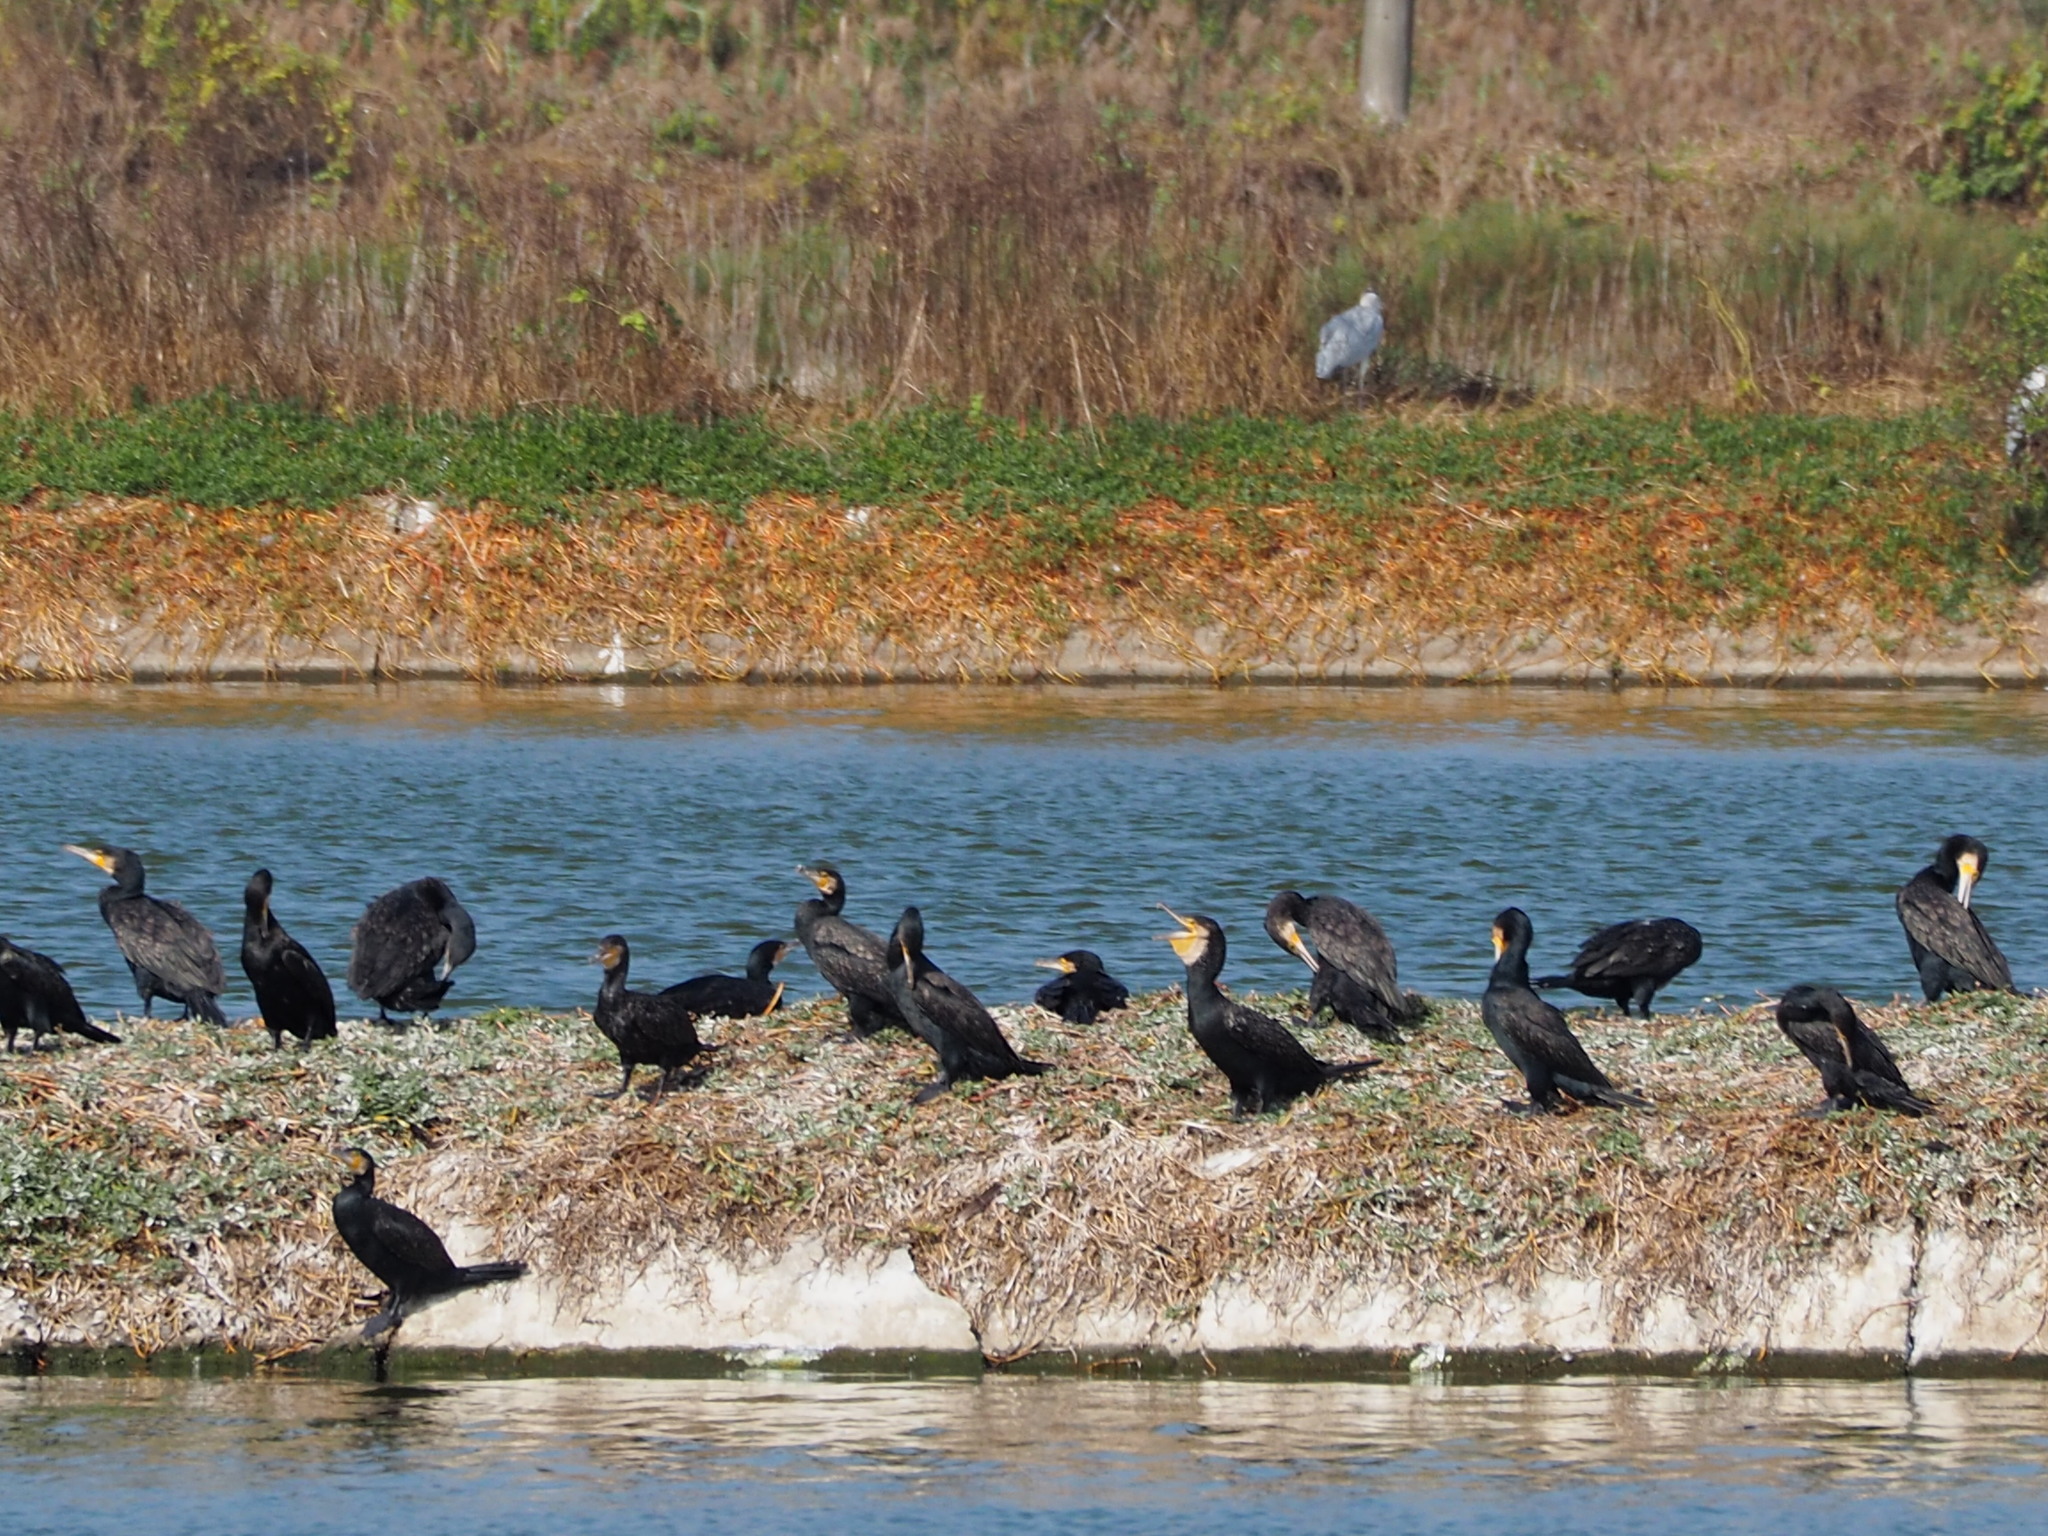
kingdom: Animalia
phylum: Chordata
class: Aves
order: Suliformes
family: Phalacrocoracidae
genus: Phalacrocorax
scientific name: Phalacrocorax carbo
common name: Great cormorant
